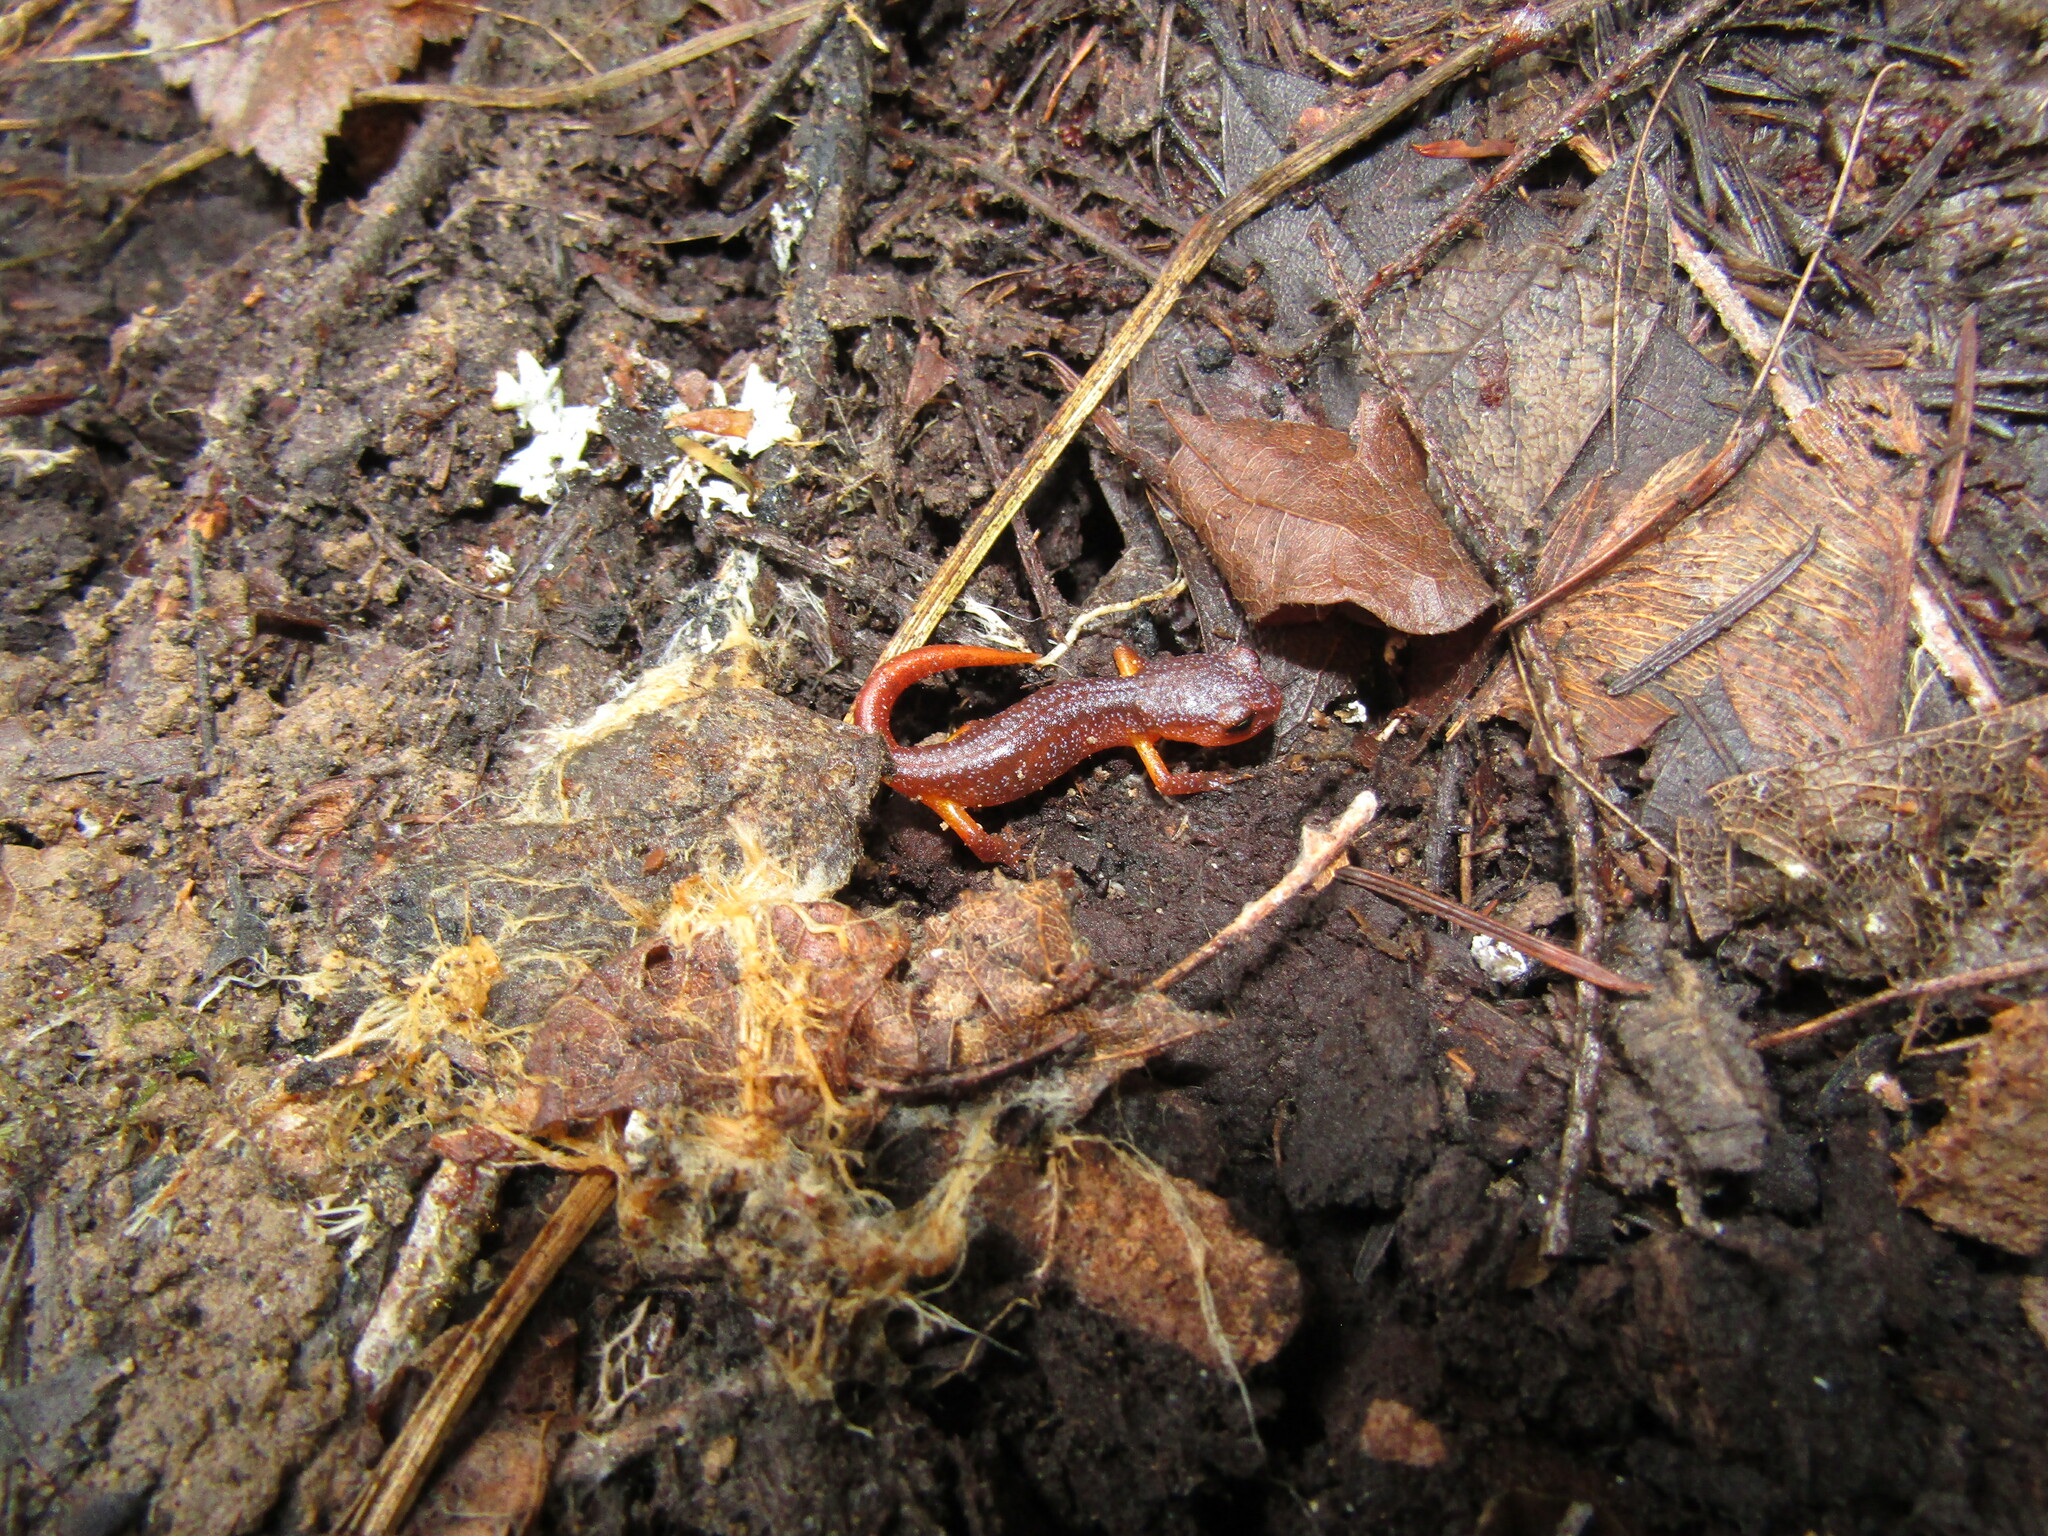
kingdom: Animalia
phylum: Chordata
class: Amphibia
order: Caudata
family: Plethodontidae
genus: Ensatina
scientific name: Ensatina eschscholtzii
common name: Ensatina
